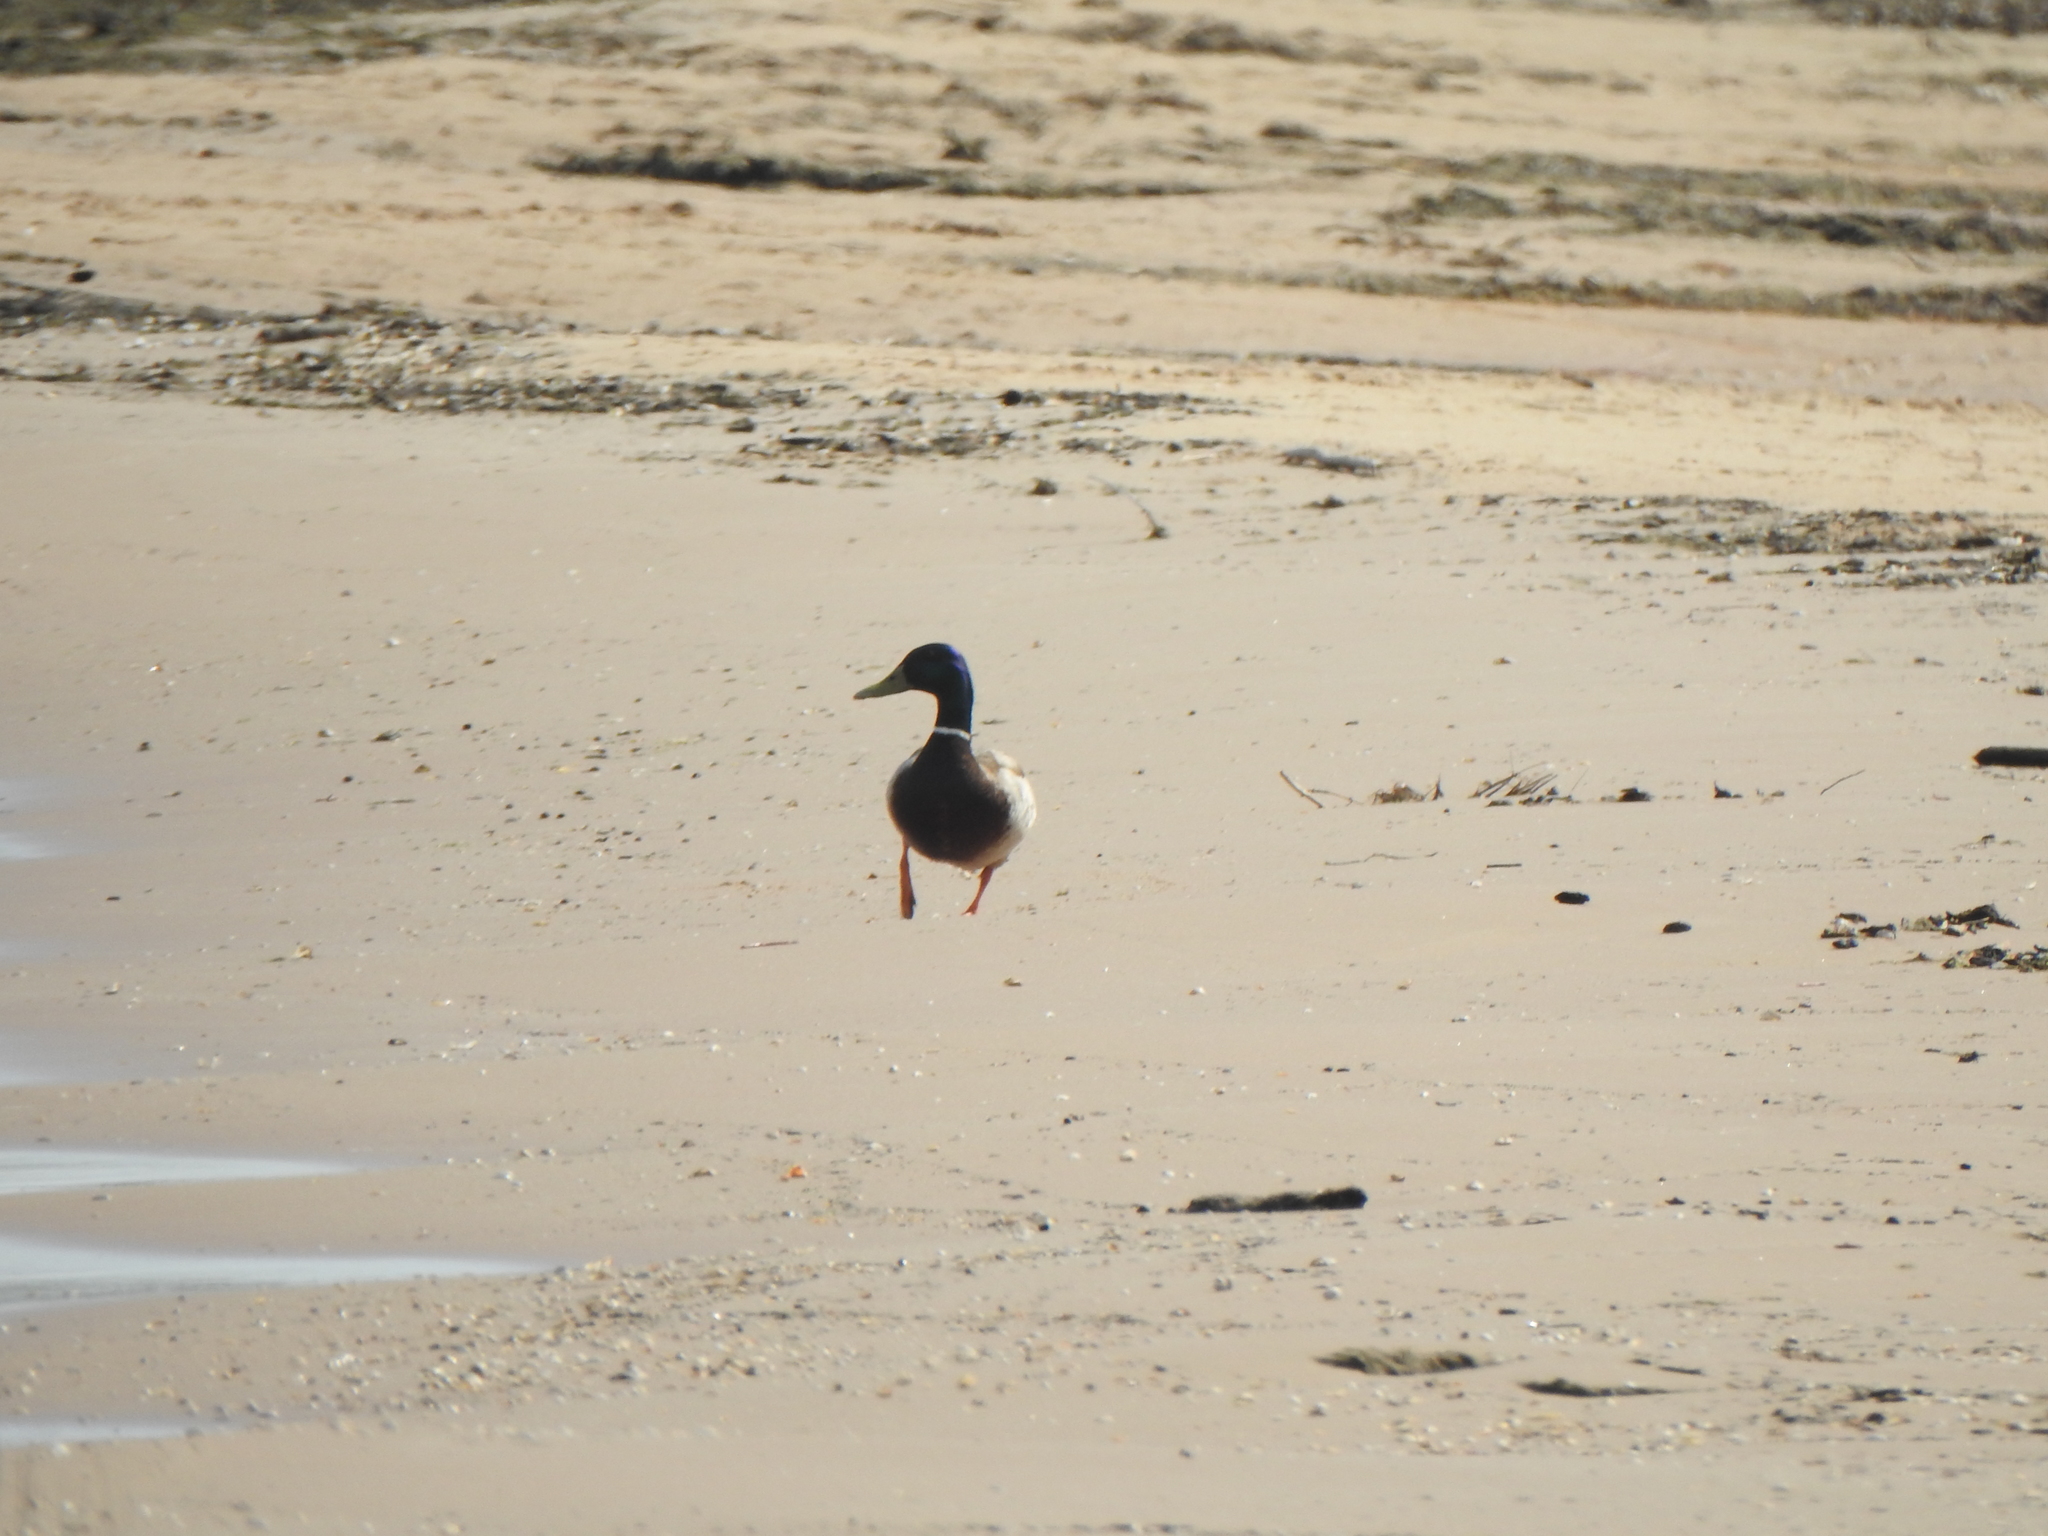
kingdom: Animalia
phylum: Chordata
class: Aves
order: Anseriformes
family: Anatidae
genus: Anas
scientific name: Anas platyrhynchos
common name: Mallard
